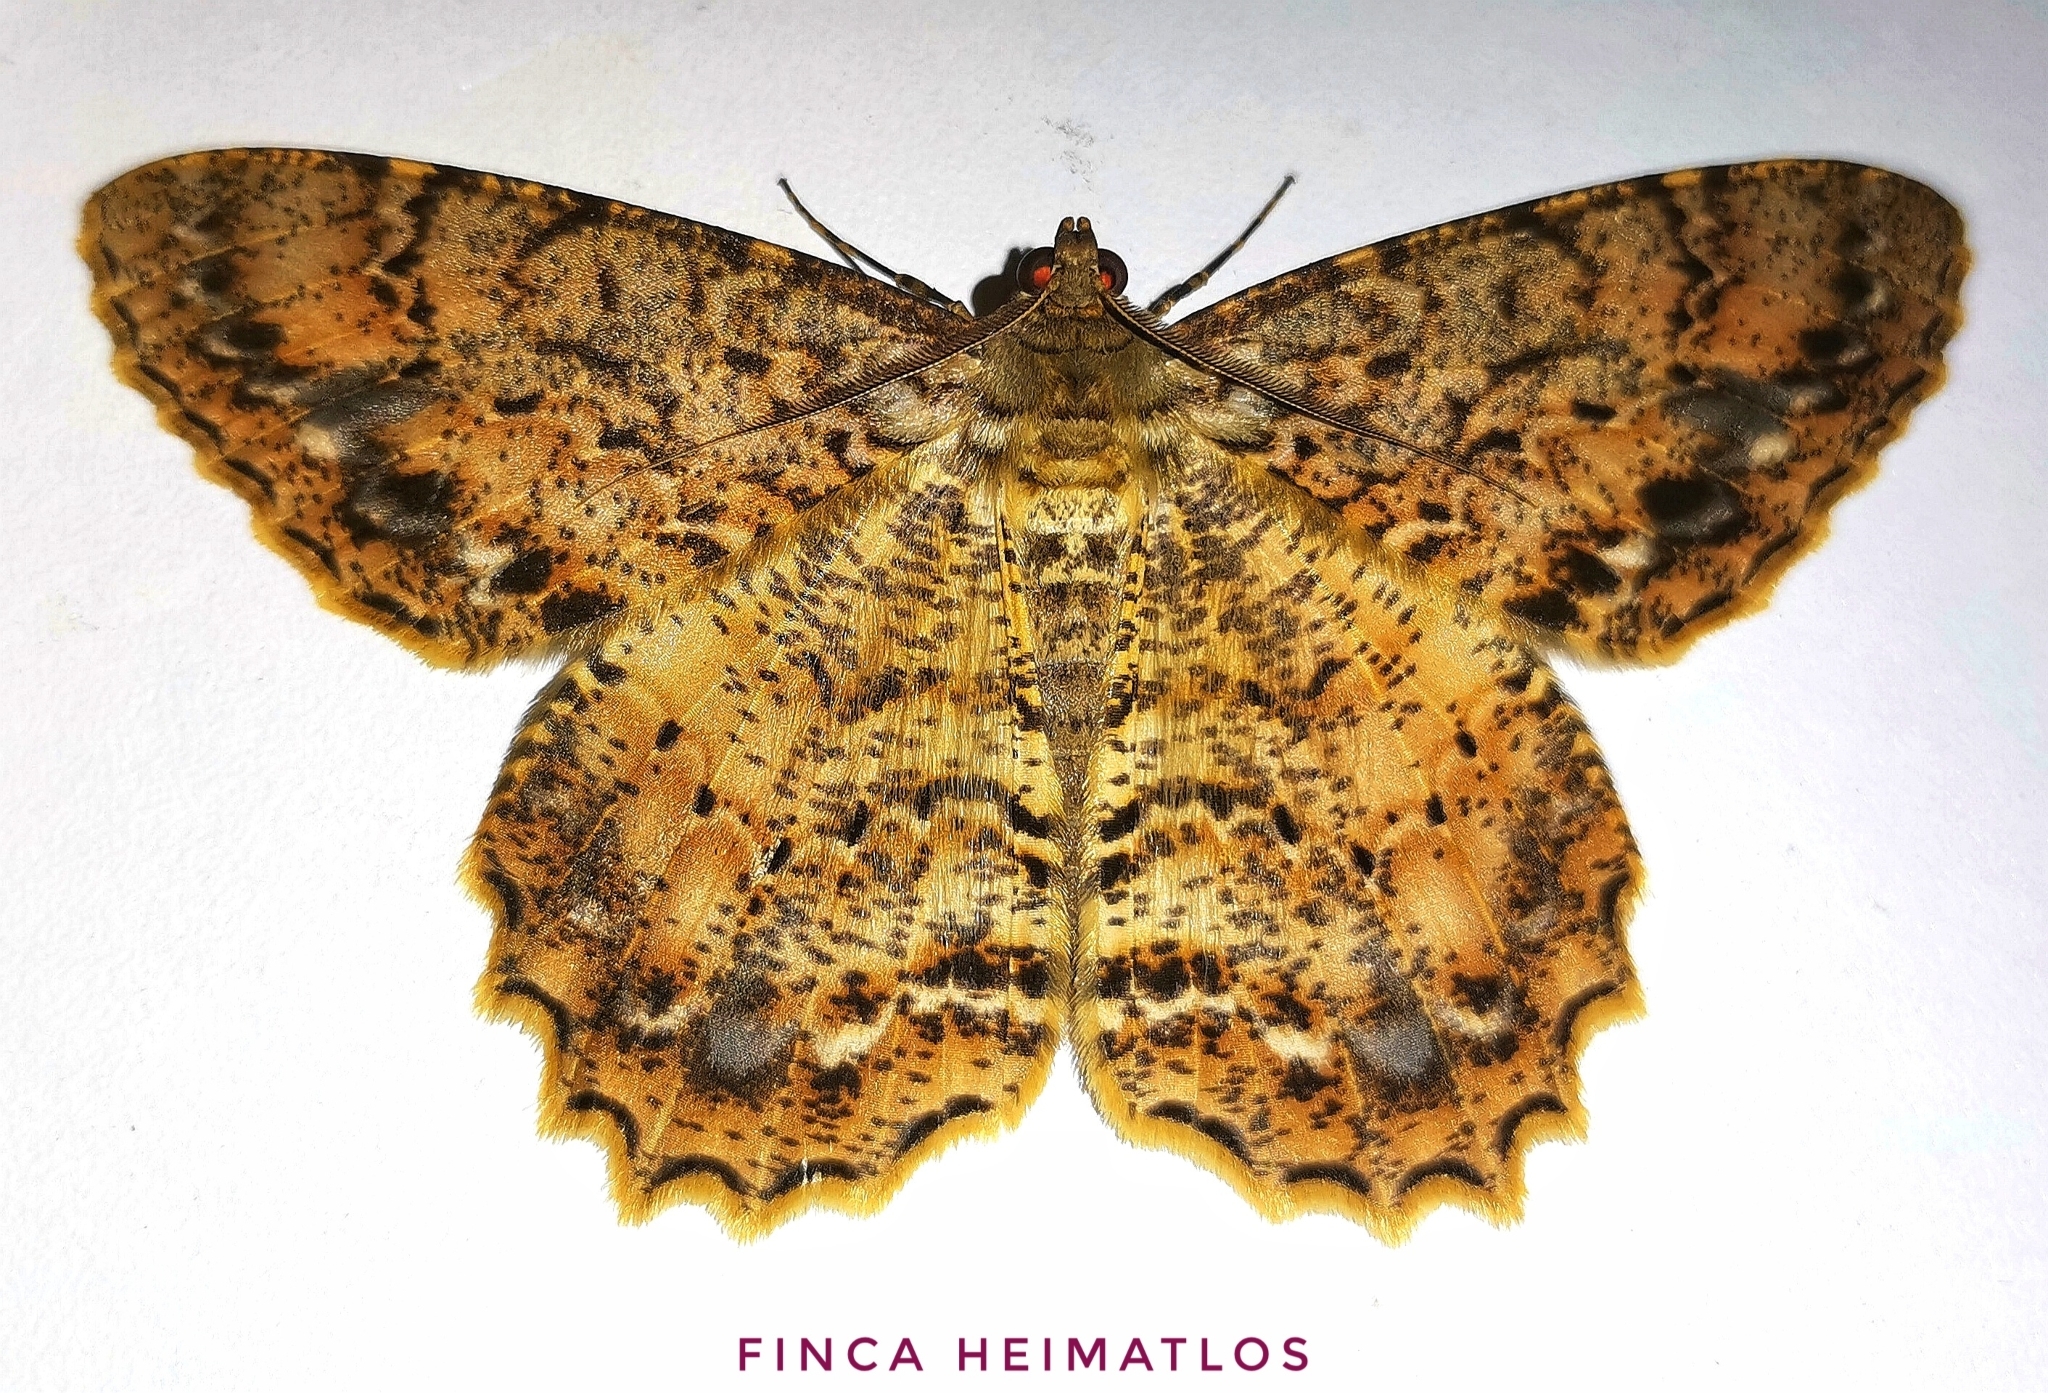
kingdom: Animalia
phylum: Arthropoda
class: Insecta
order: Lepidoptera
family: Geometridae
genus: Epimecis
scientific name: Epimecis nasica
